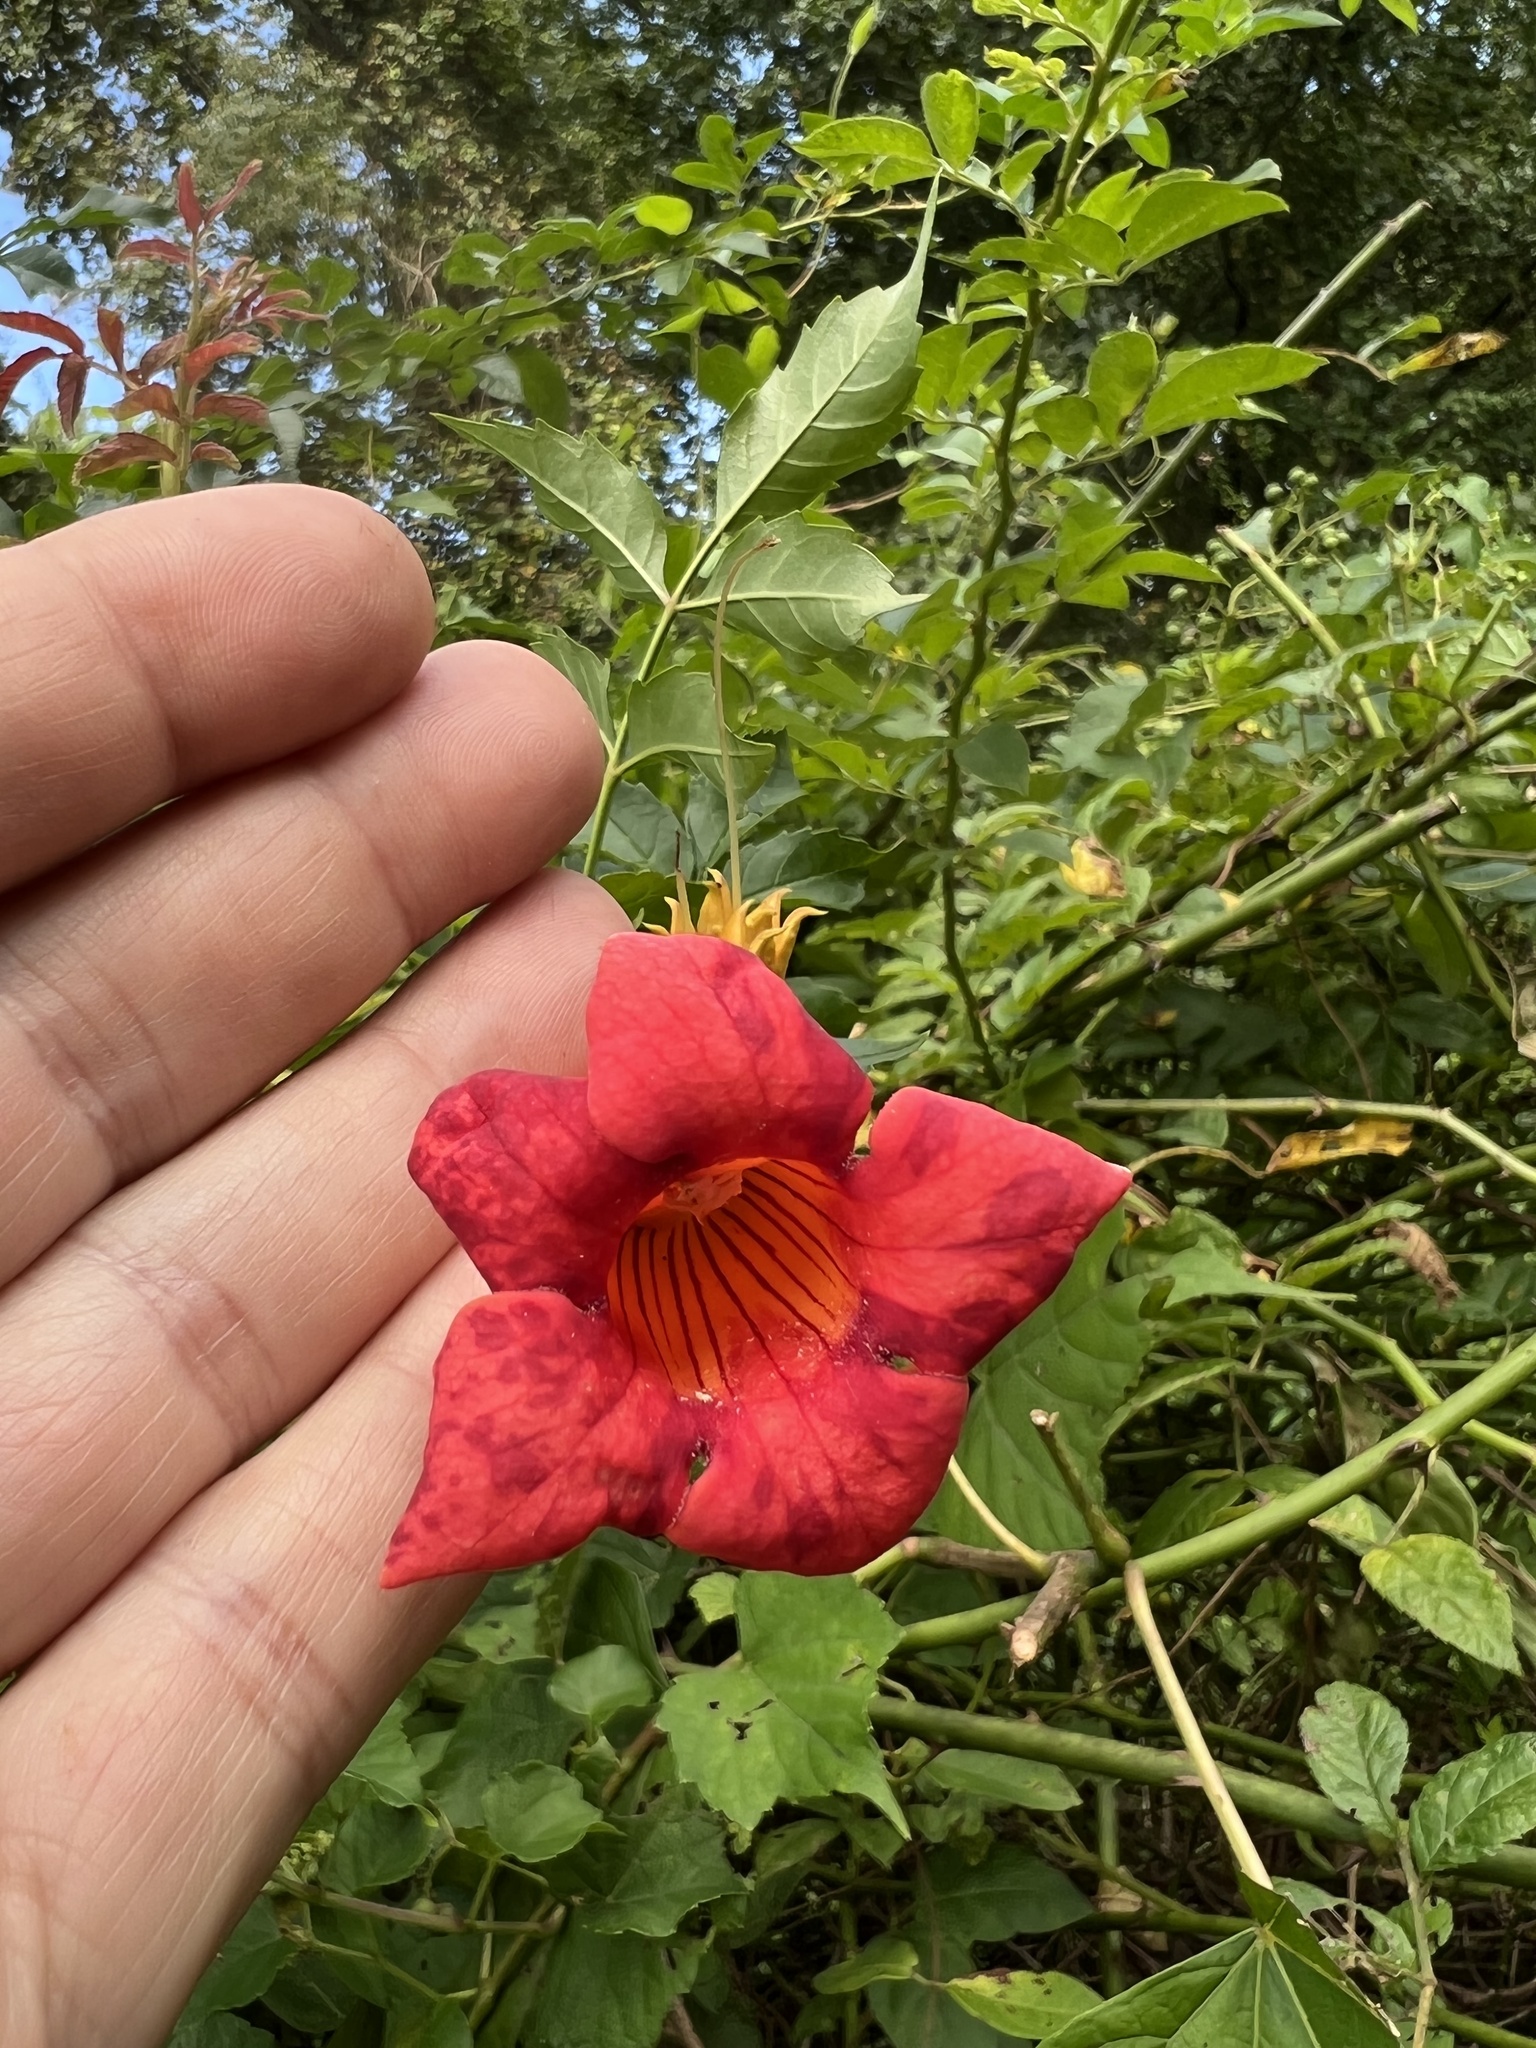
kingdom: Plantae
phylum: Tracheophyta
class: Magnoliopsida
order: Lamiales
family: Bignoniaceae
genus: Campsis
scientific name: Campsis radicans
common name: Trumpet-creeper
